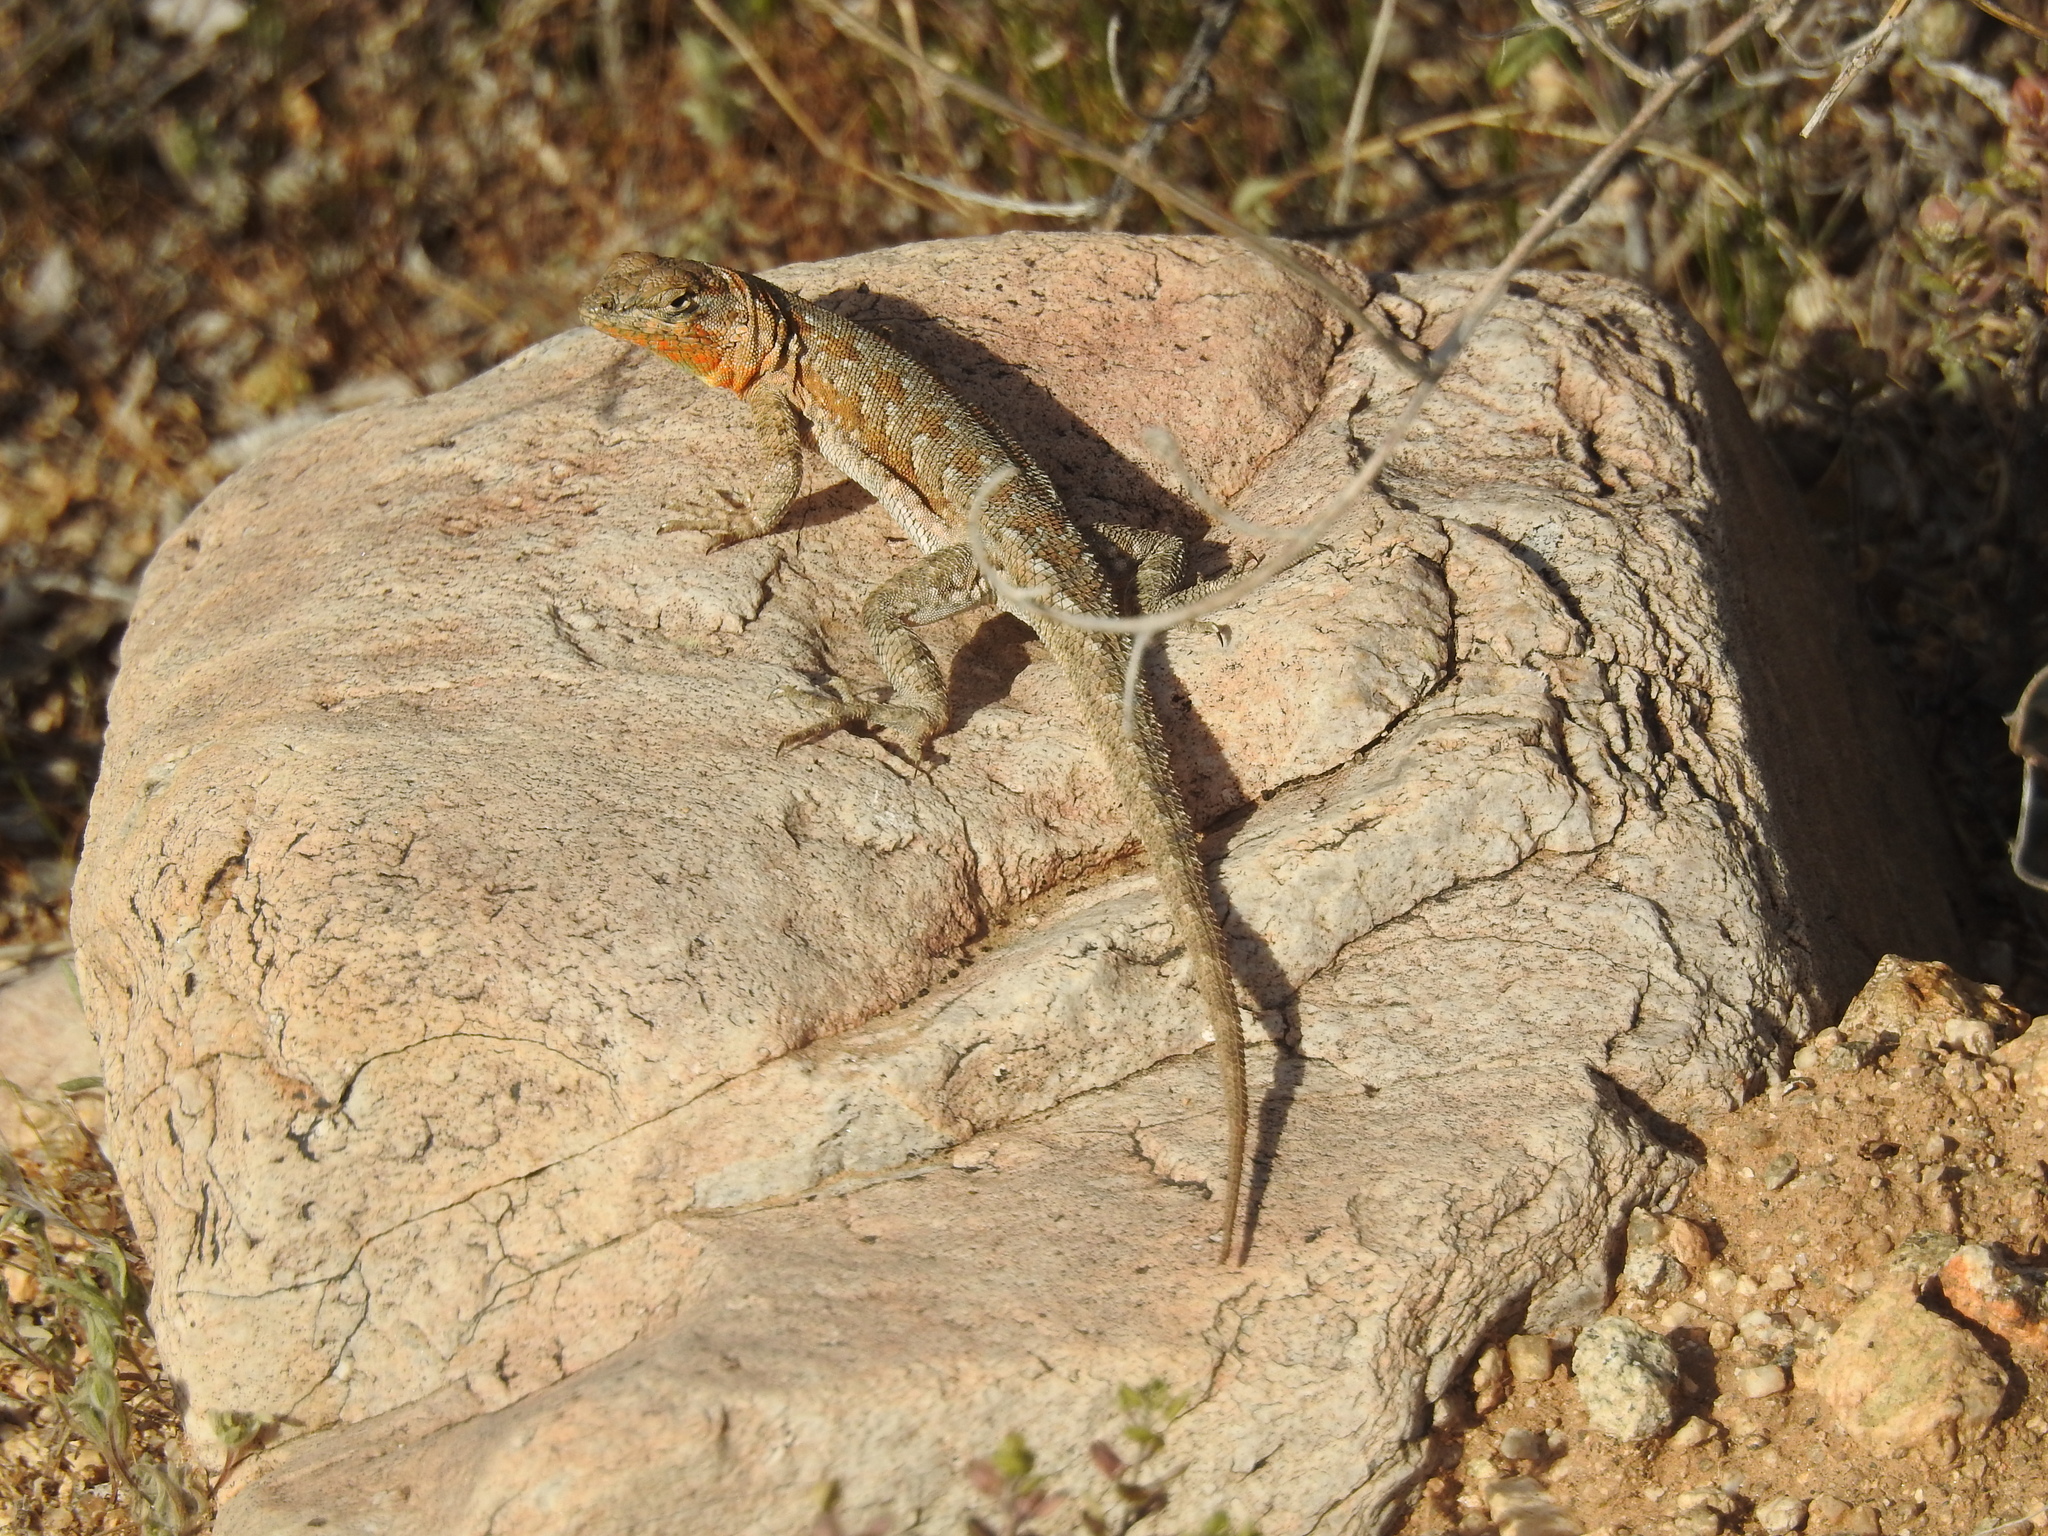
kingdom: Animalia
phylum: Chordata
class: Squamata
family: Phrynosomatidae
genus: Uta
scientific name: Uta stansburiana
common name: Side-blotched lizard
